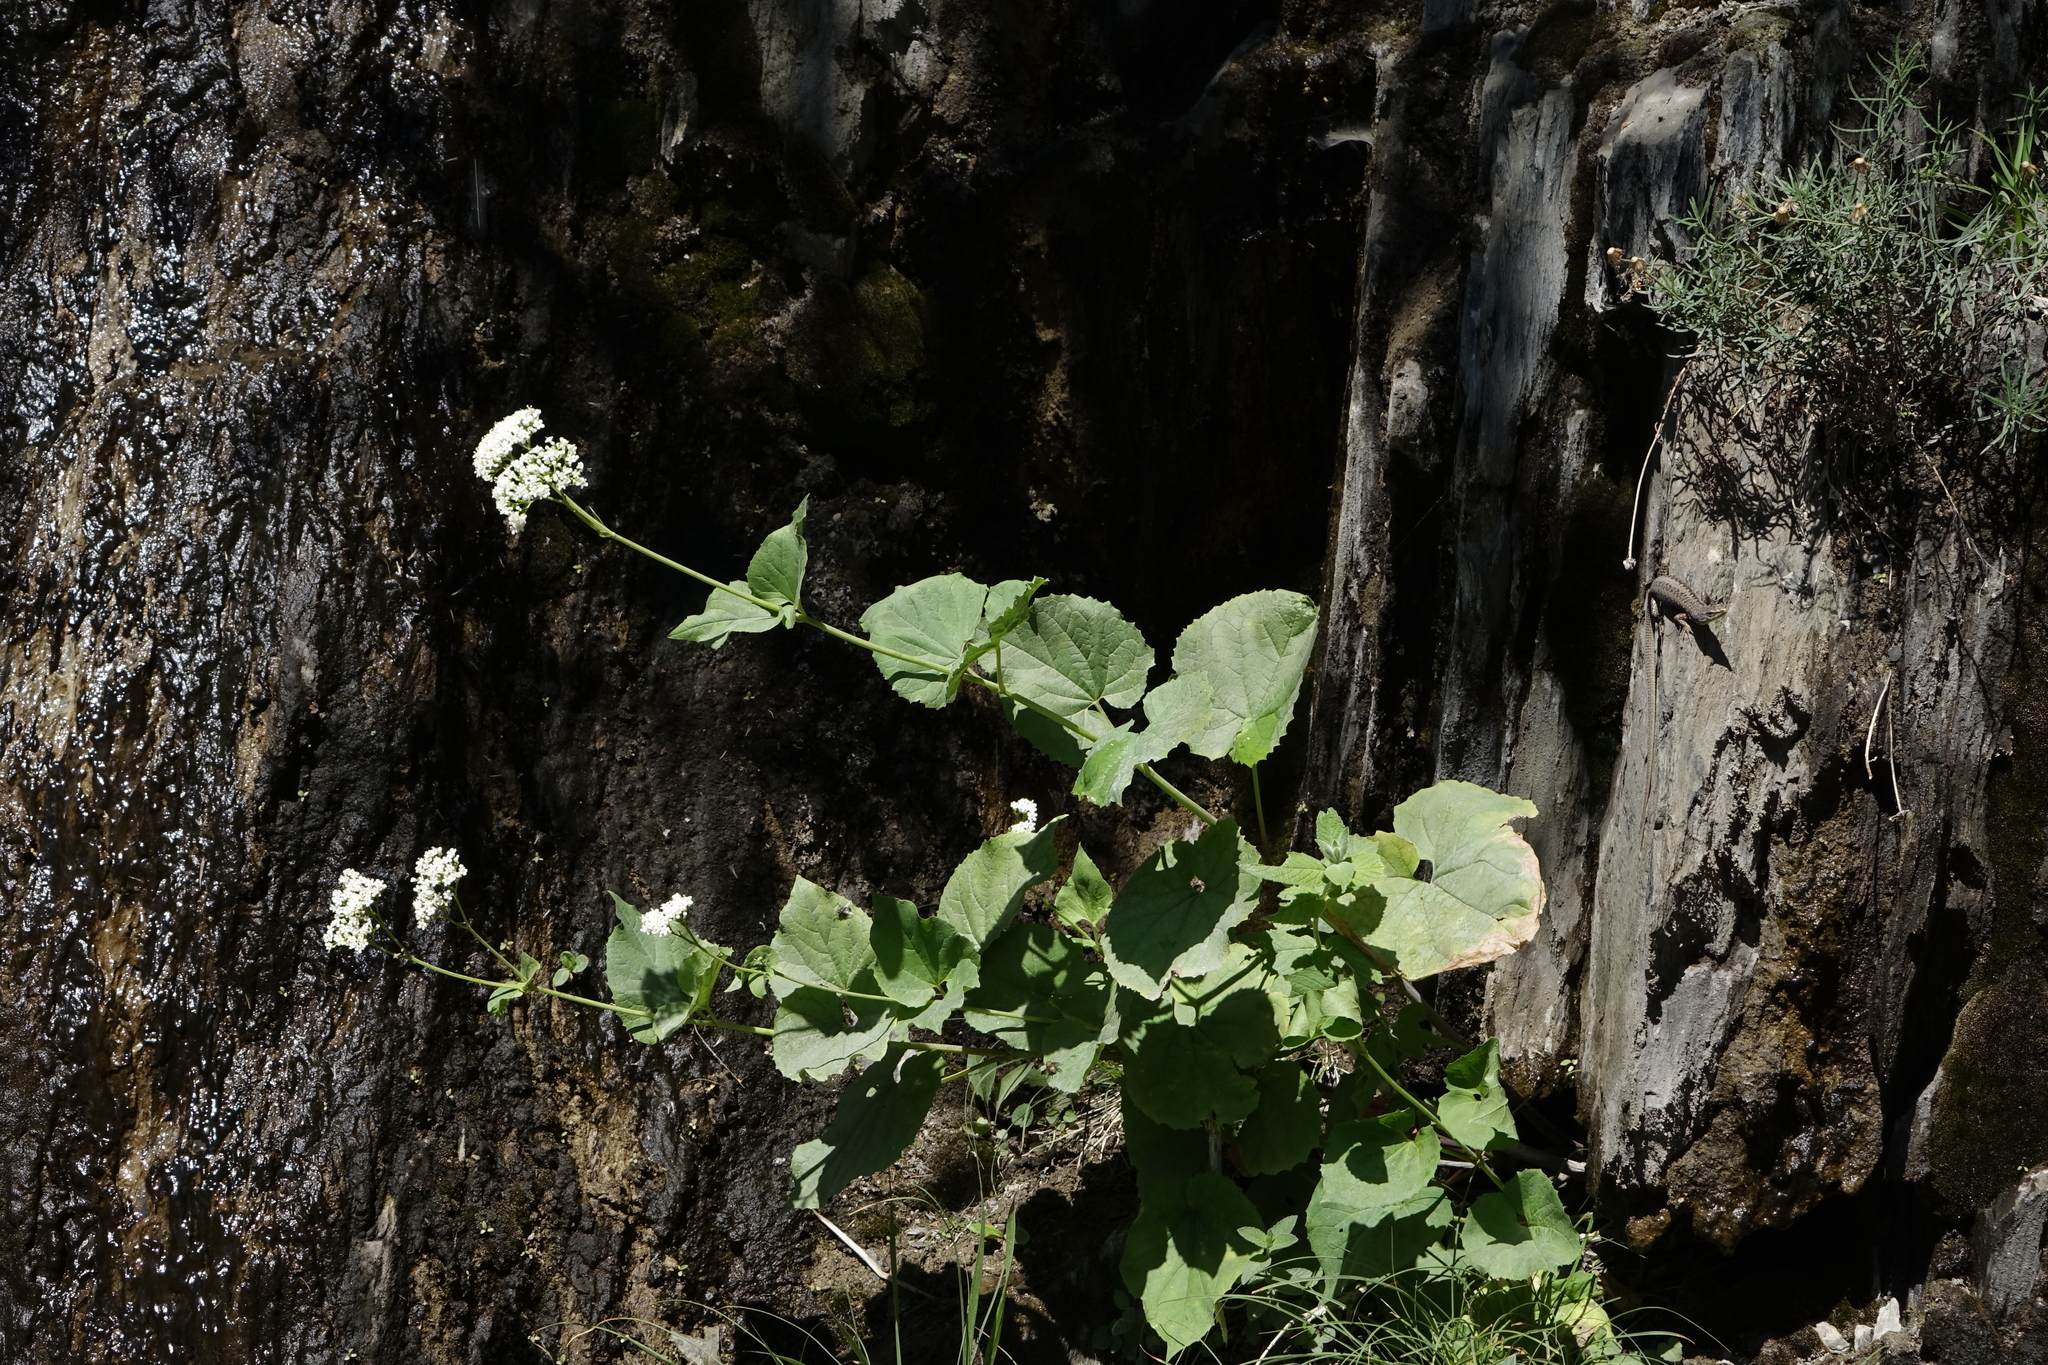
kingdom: Plantae
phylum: Tracheophyta
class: Magnoliopsida
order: Dipsacales
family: Caprifoliaceae
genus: Valeriana
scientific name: Valeriana alliariifolia
